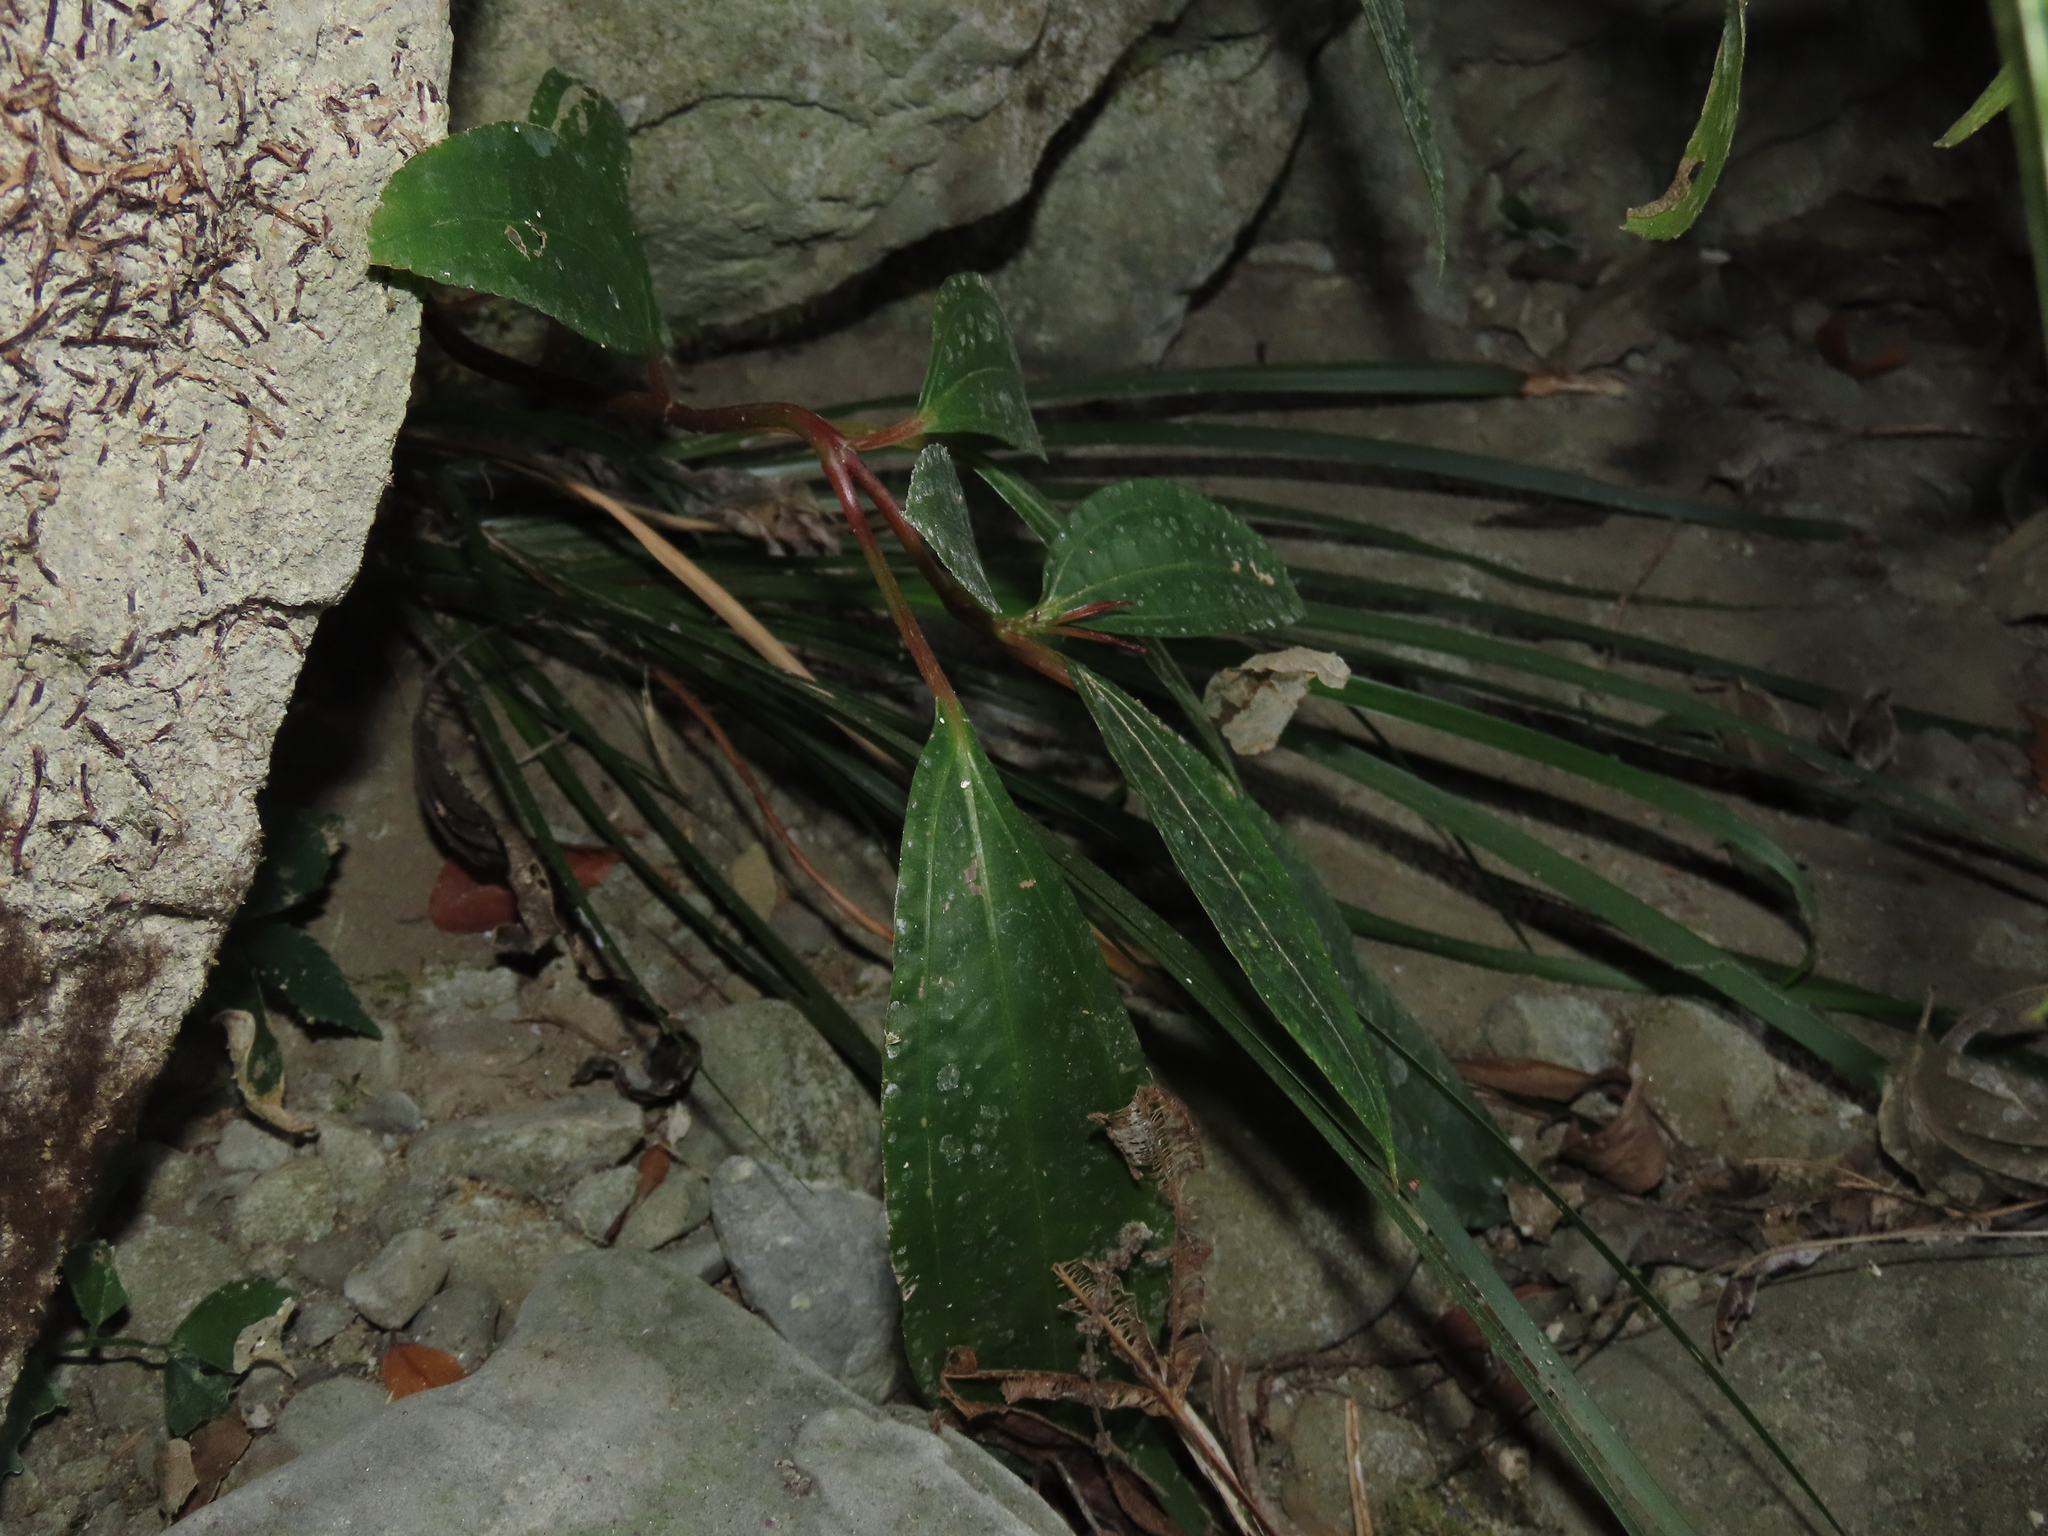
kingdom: Plantae
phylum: Tracheophyta
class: Magnoliopsida
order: Rosales
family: Urticaceae
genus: Boehmeria
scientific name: Boehmeria densiflora
